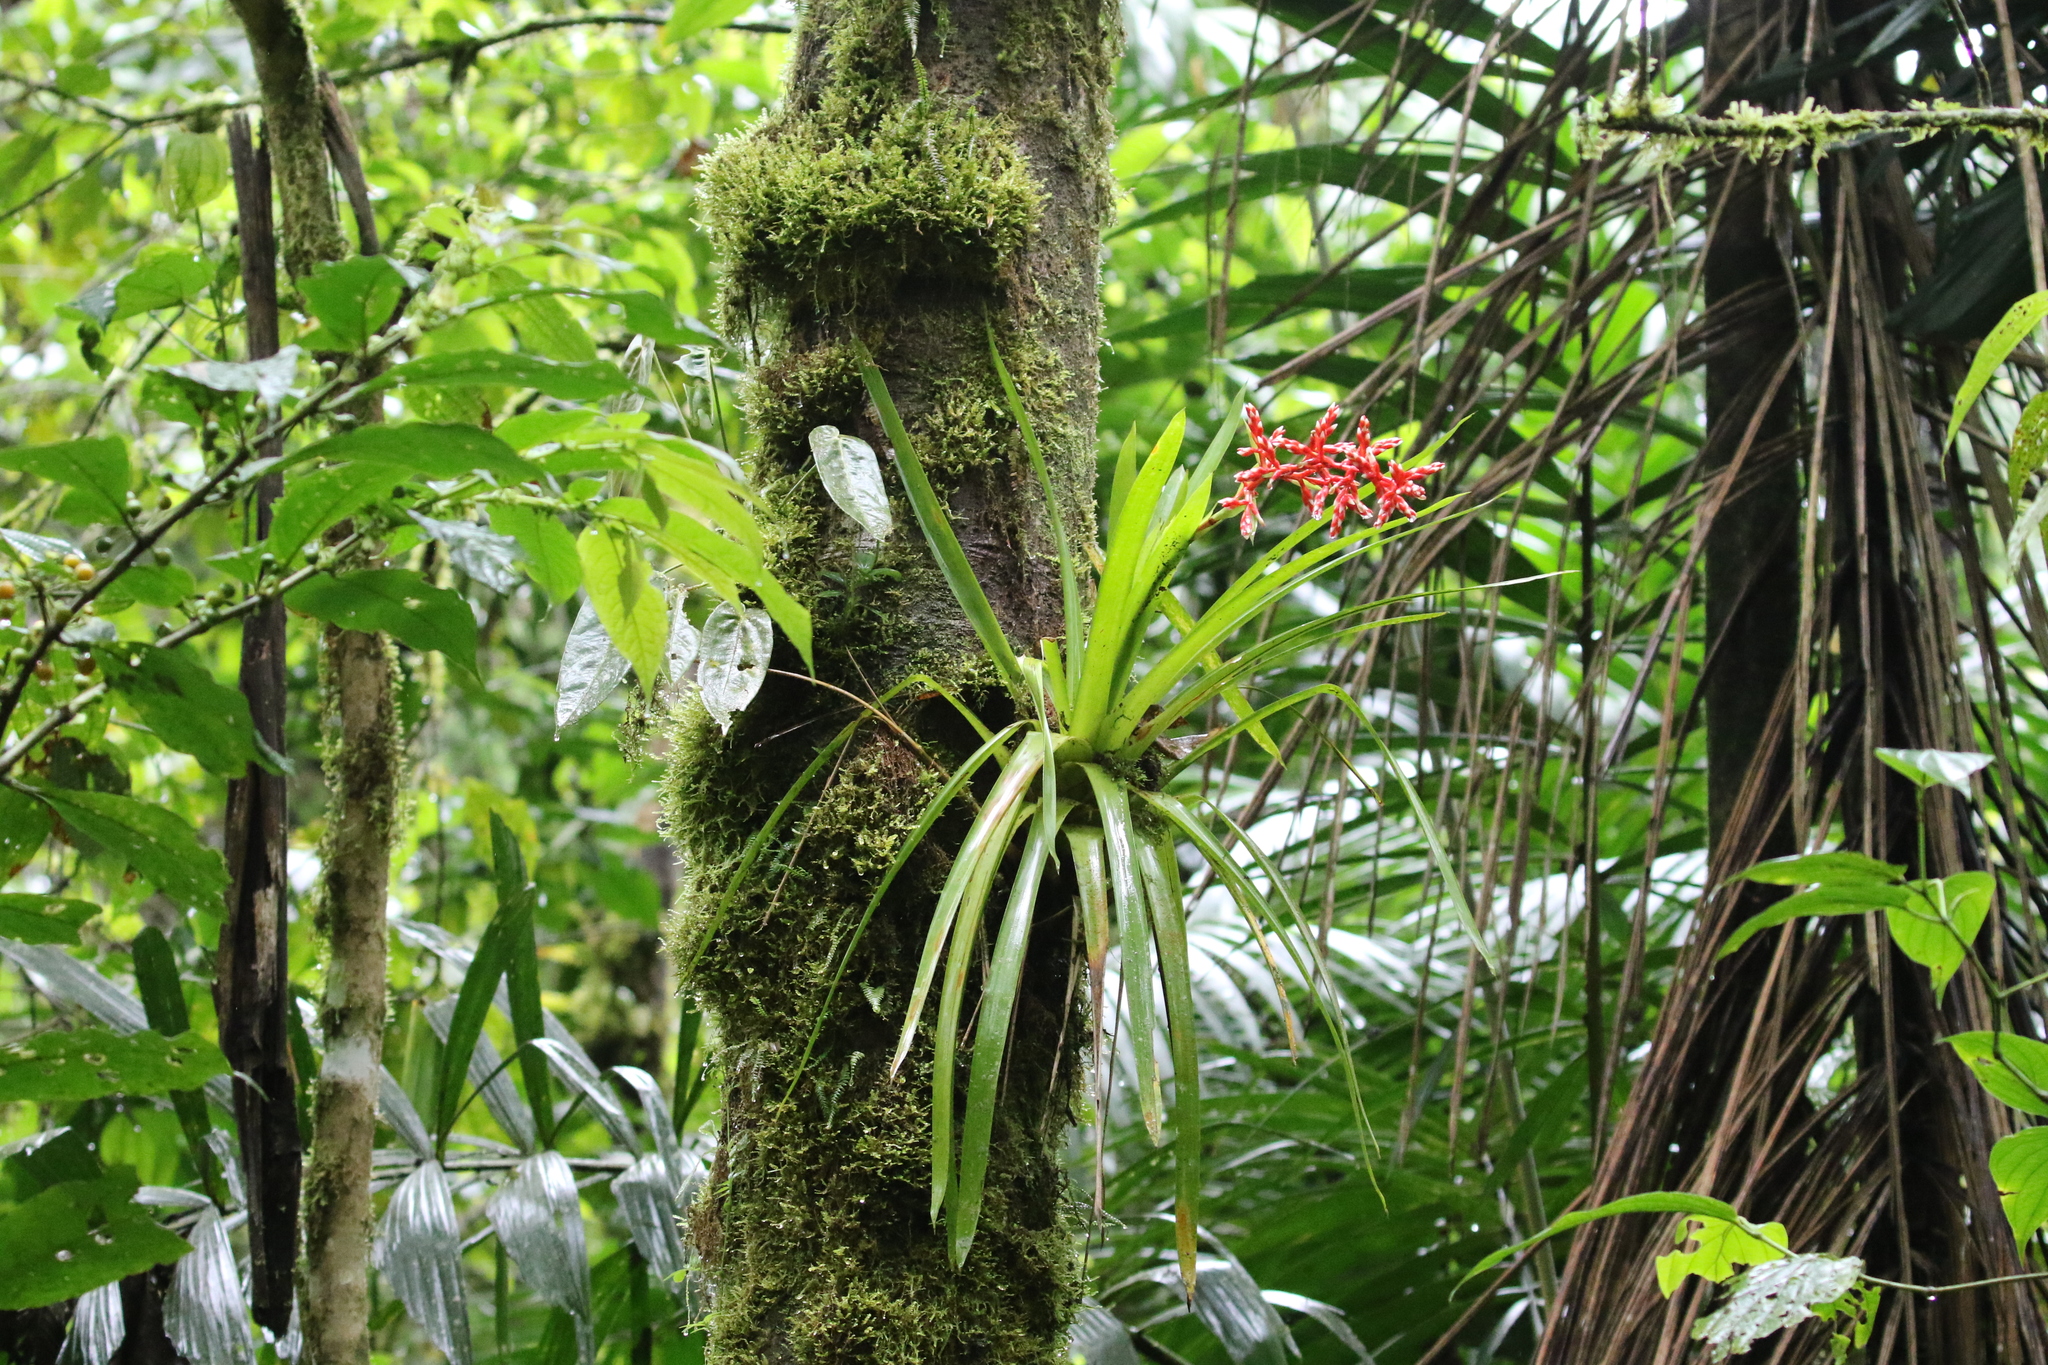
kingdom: Plantae
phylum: Tracheophyta
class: Liliopsida
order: Poales
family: Bromeliaceae
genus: Guzmania
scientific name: Guzmania cundinamarcae
